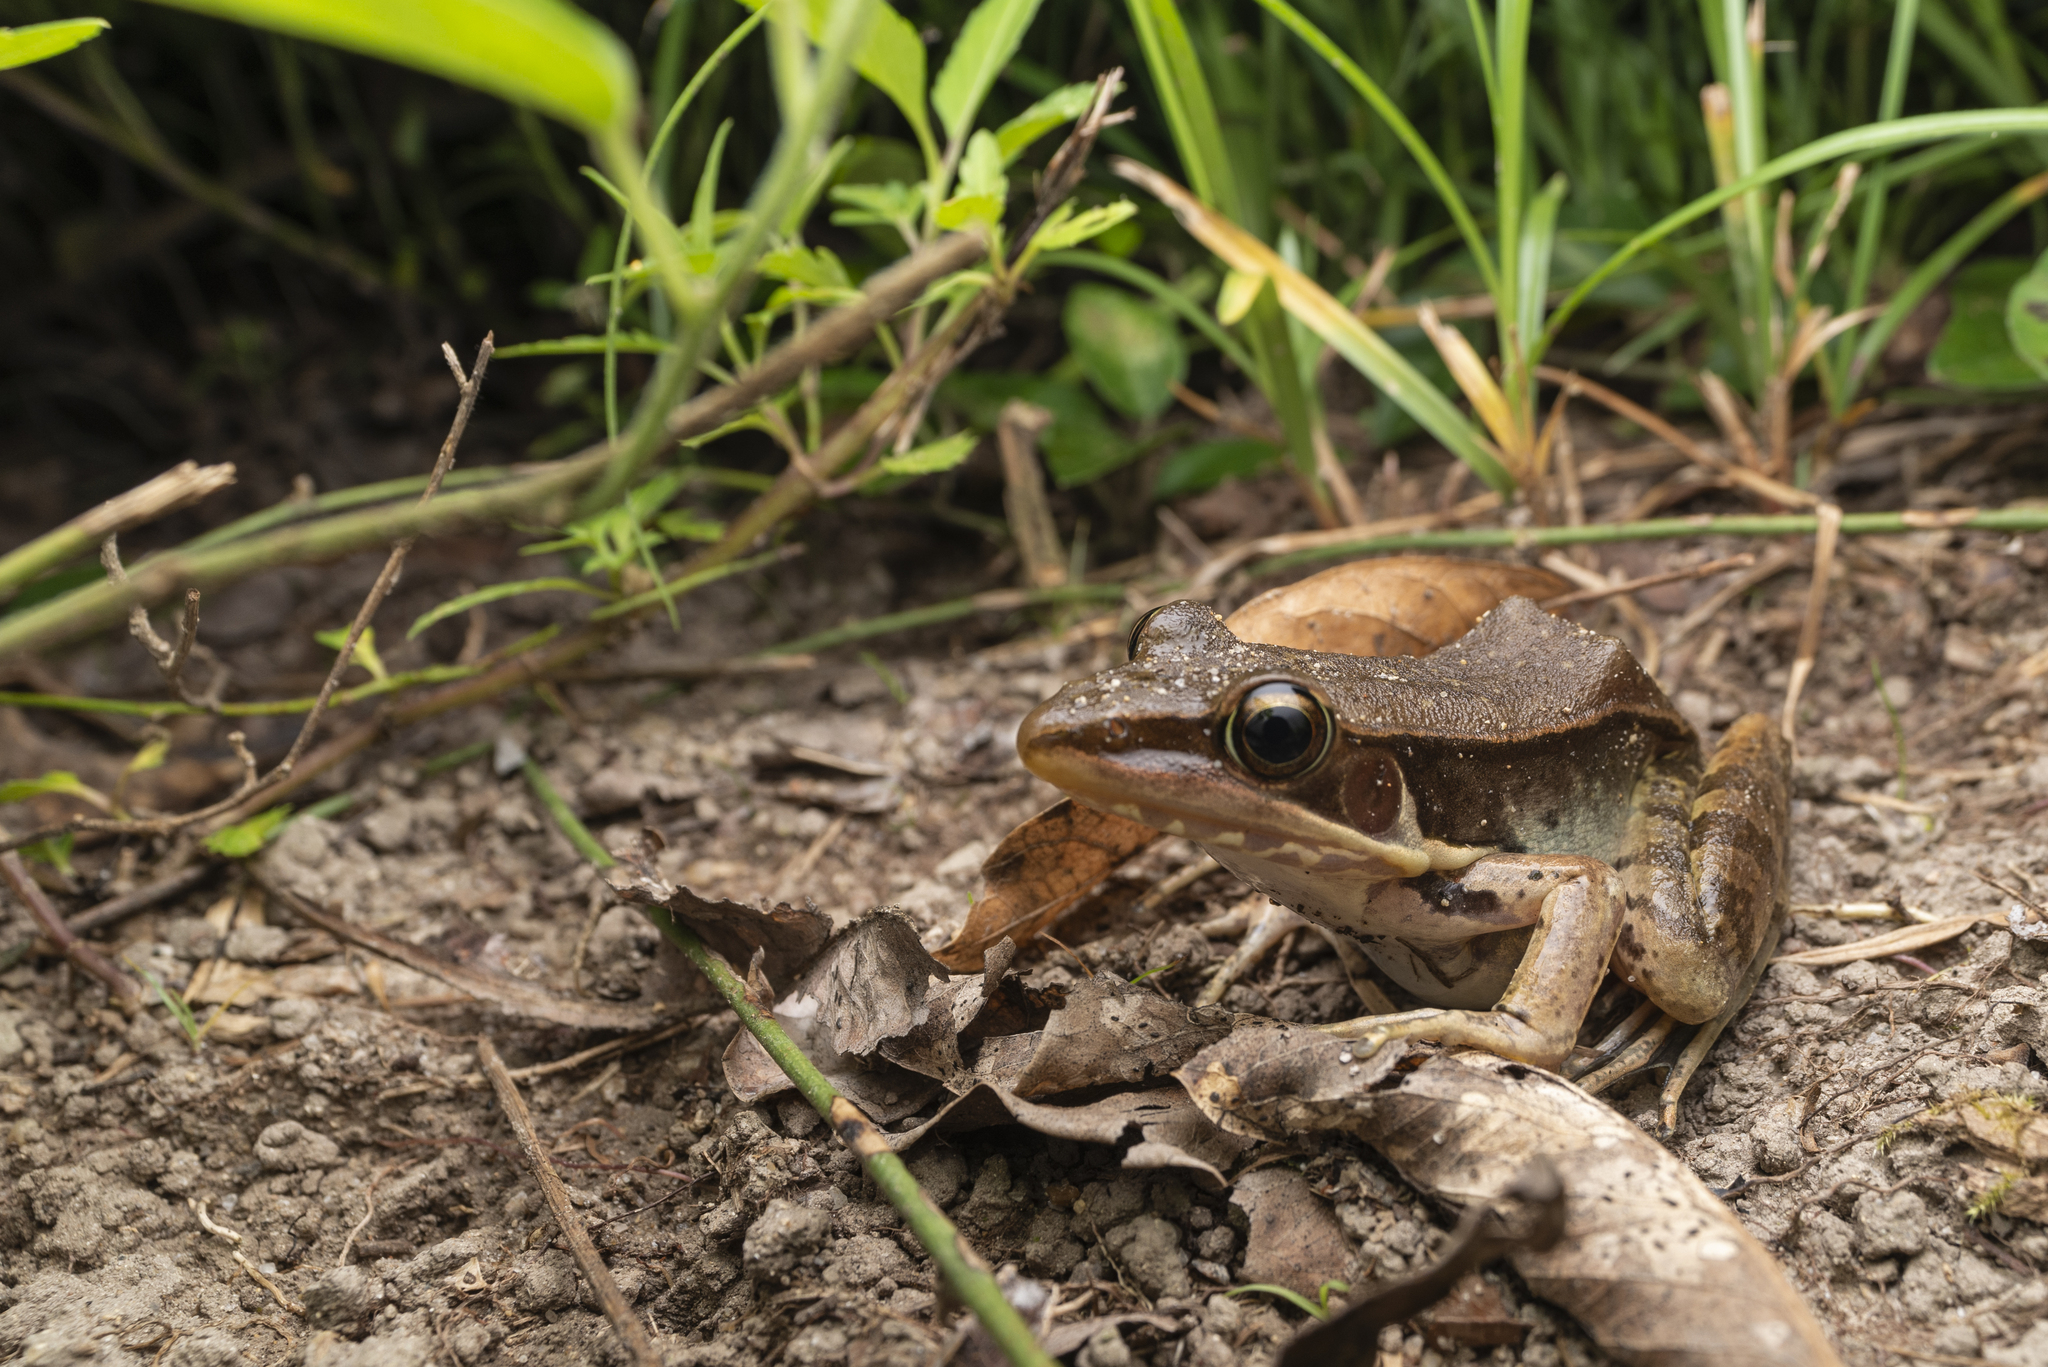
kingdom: Animalia
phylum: Chordata
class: Amphibia
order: Anura
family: Ranidae
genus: Sylvirana
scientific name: Sylvirana guentheri
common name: Guenther's amoy frog
